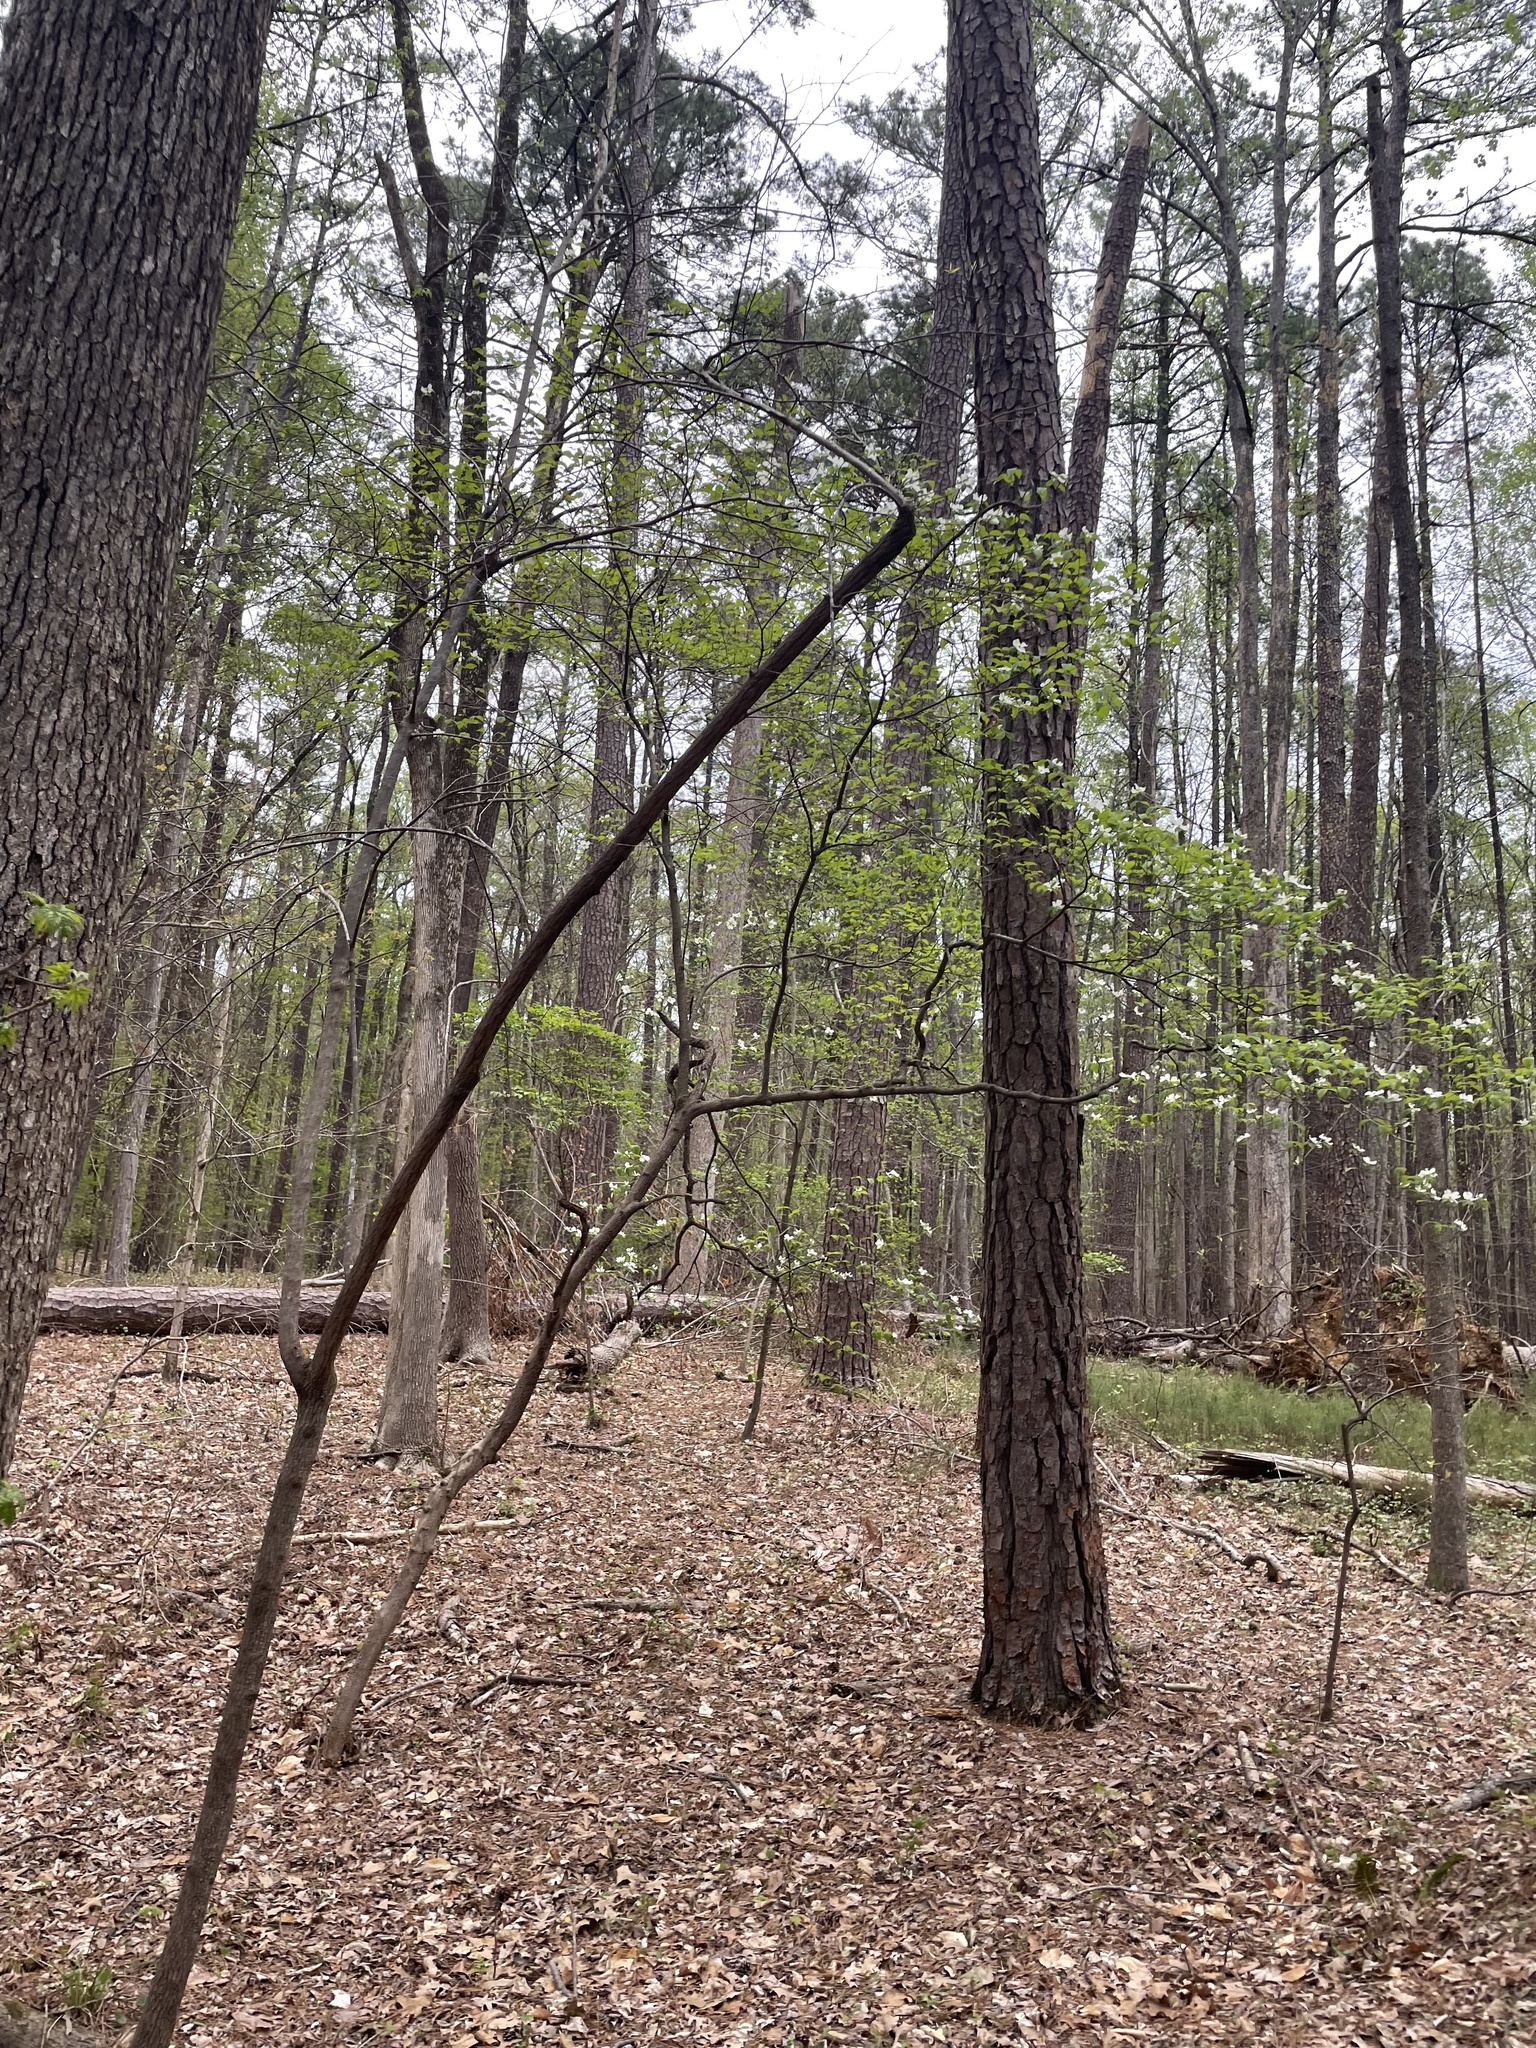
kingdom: Plantae
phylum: Tracheophyta
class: Magnoliopsida
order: Cornales
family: Cornaceae
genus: Cornus
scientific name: Cornus florida
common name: Flowering dogwood
